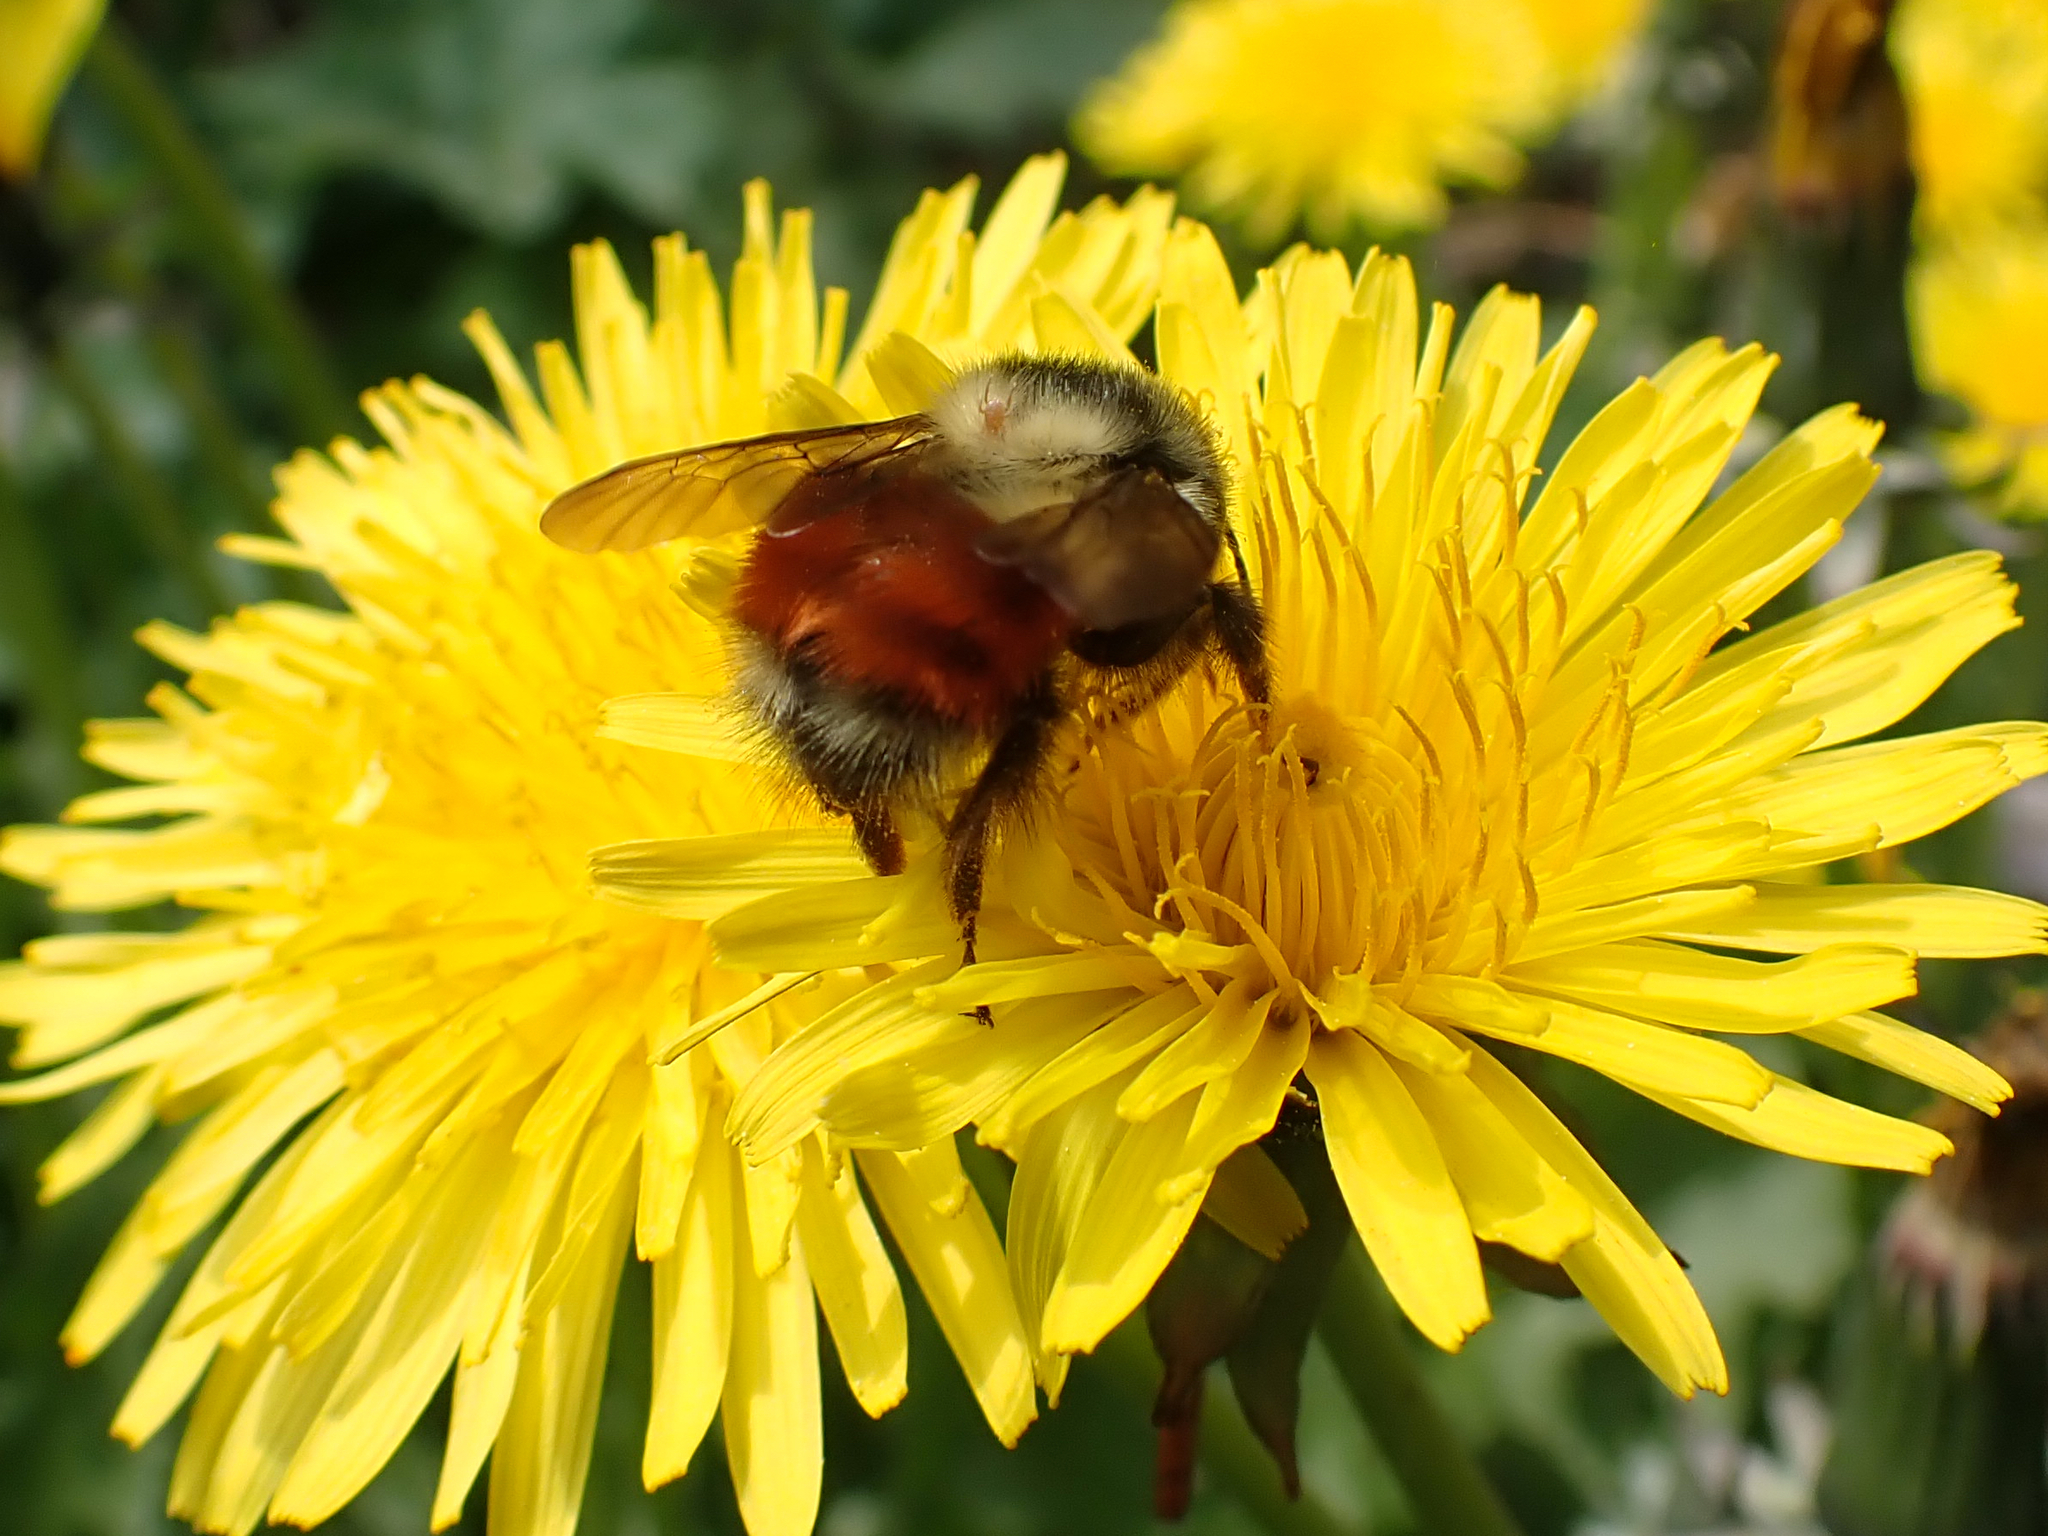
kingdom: Animalia
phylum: Arthropoda
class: Insecta
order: Hymenoptera
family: Apidae
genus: Bombus
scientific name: Bombus melanopygus
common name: Black tail bumble bee
